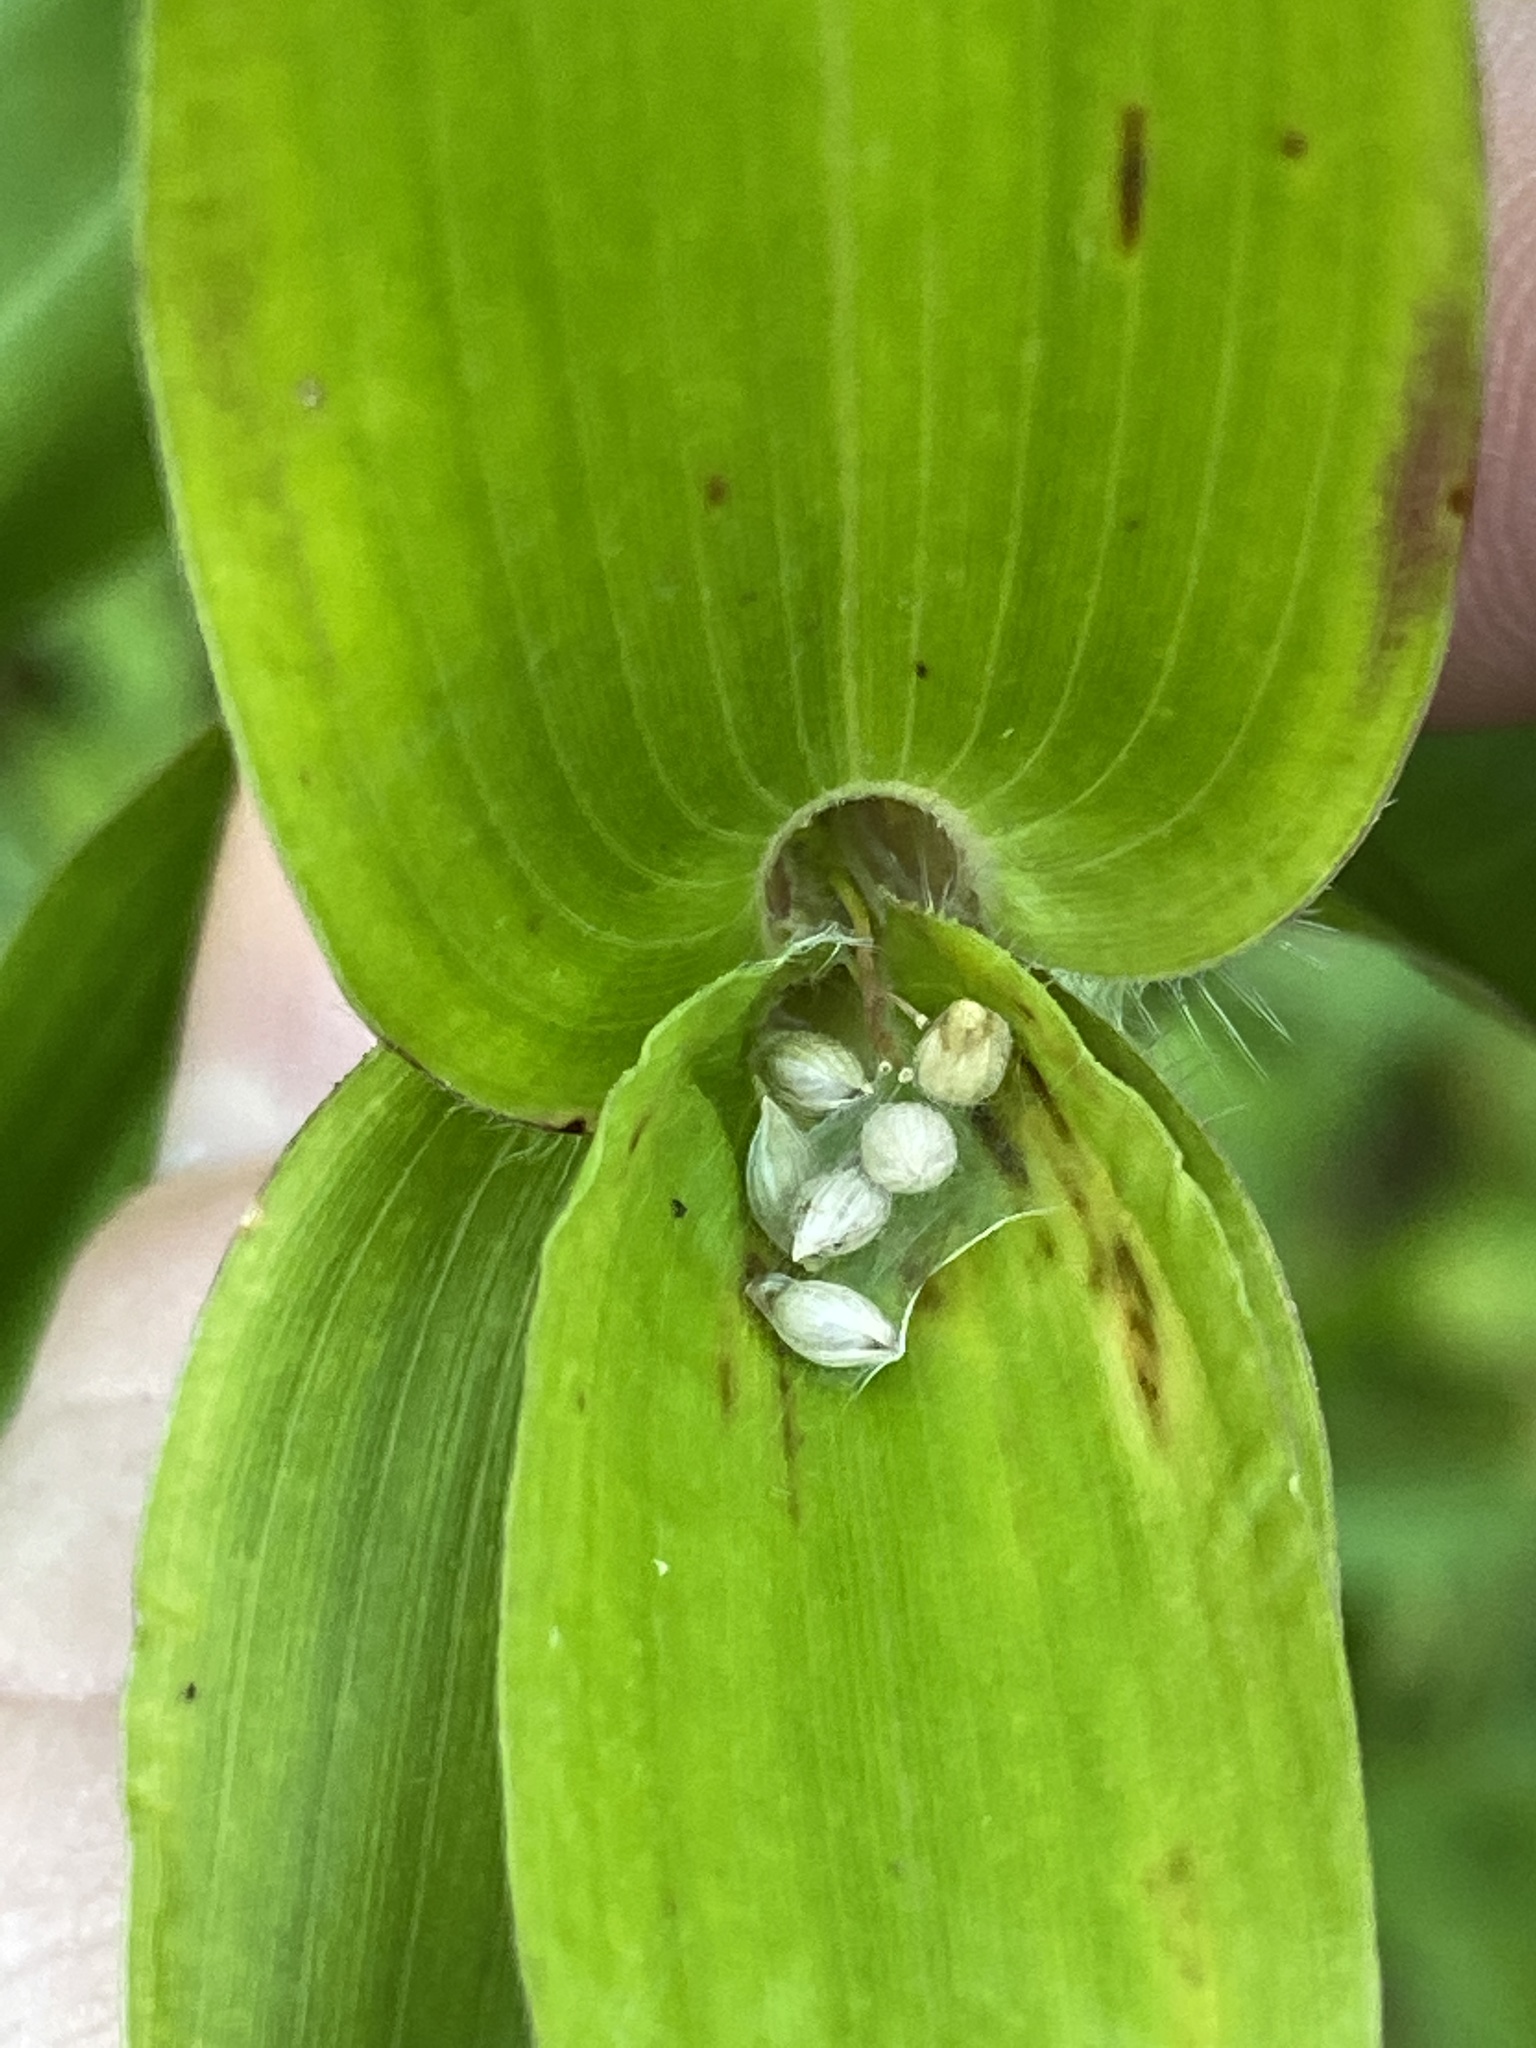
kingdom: Plantae
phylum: Tracheophyta
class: Liliopsida
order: Poales
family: Poaceae
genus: Dichanthelium
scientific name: Dichanthelium clandestinum
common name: Deer-tongue grass
